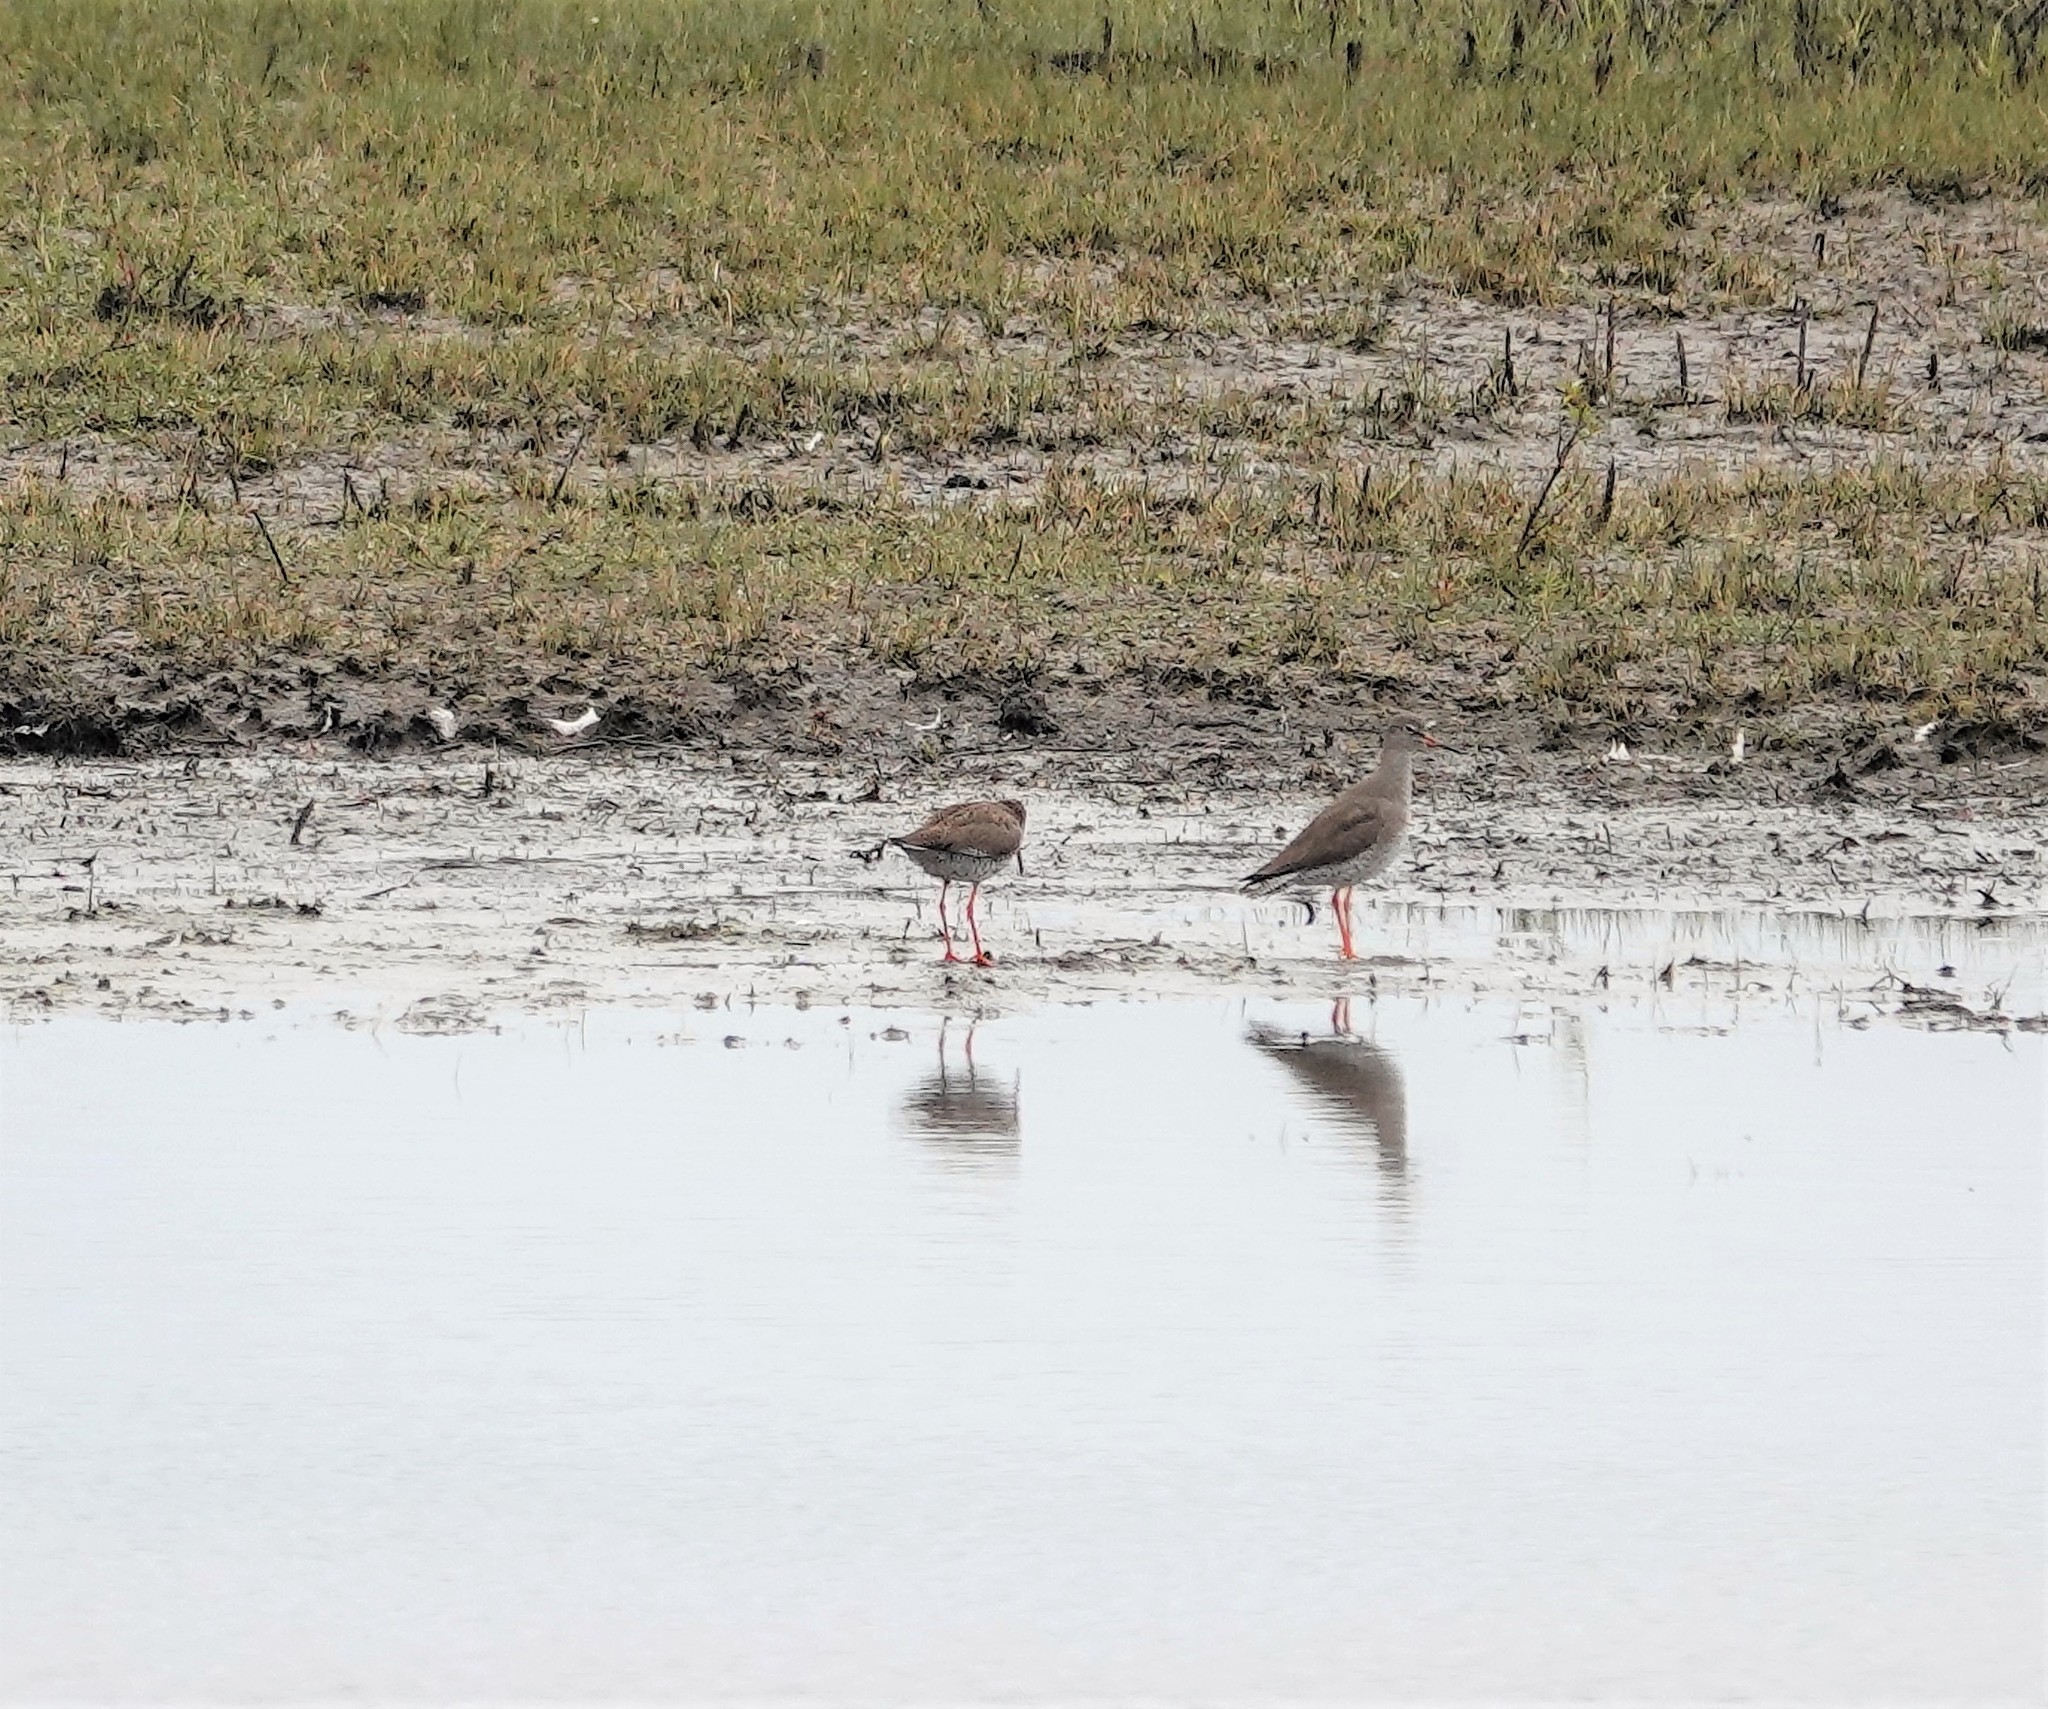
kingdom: Animalia
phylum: Chordata
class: Aves
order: Charadriiformes
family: Scolopacidae
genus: Tringa
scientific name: Tringa totanus
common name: Common redshank
